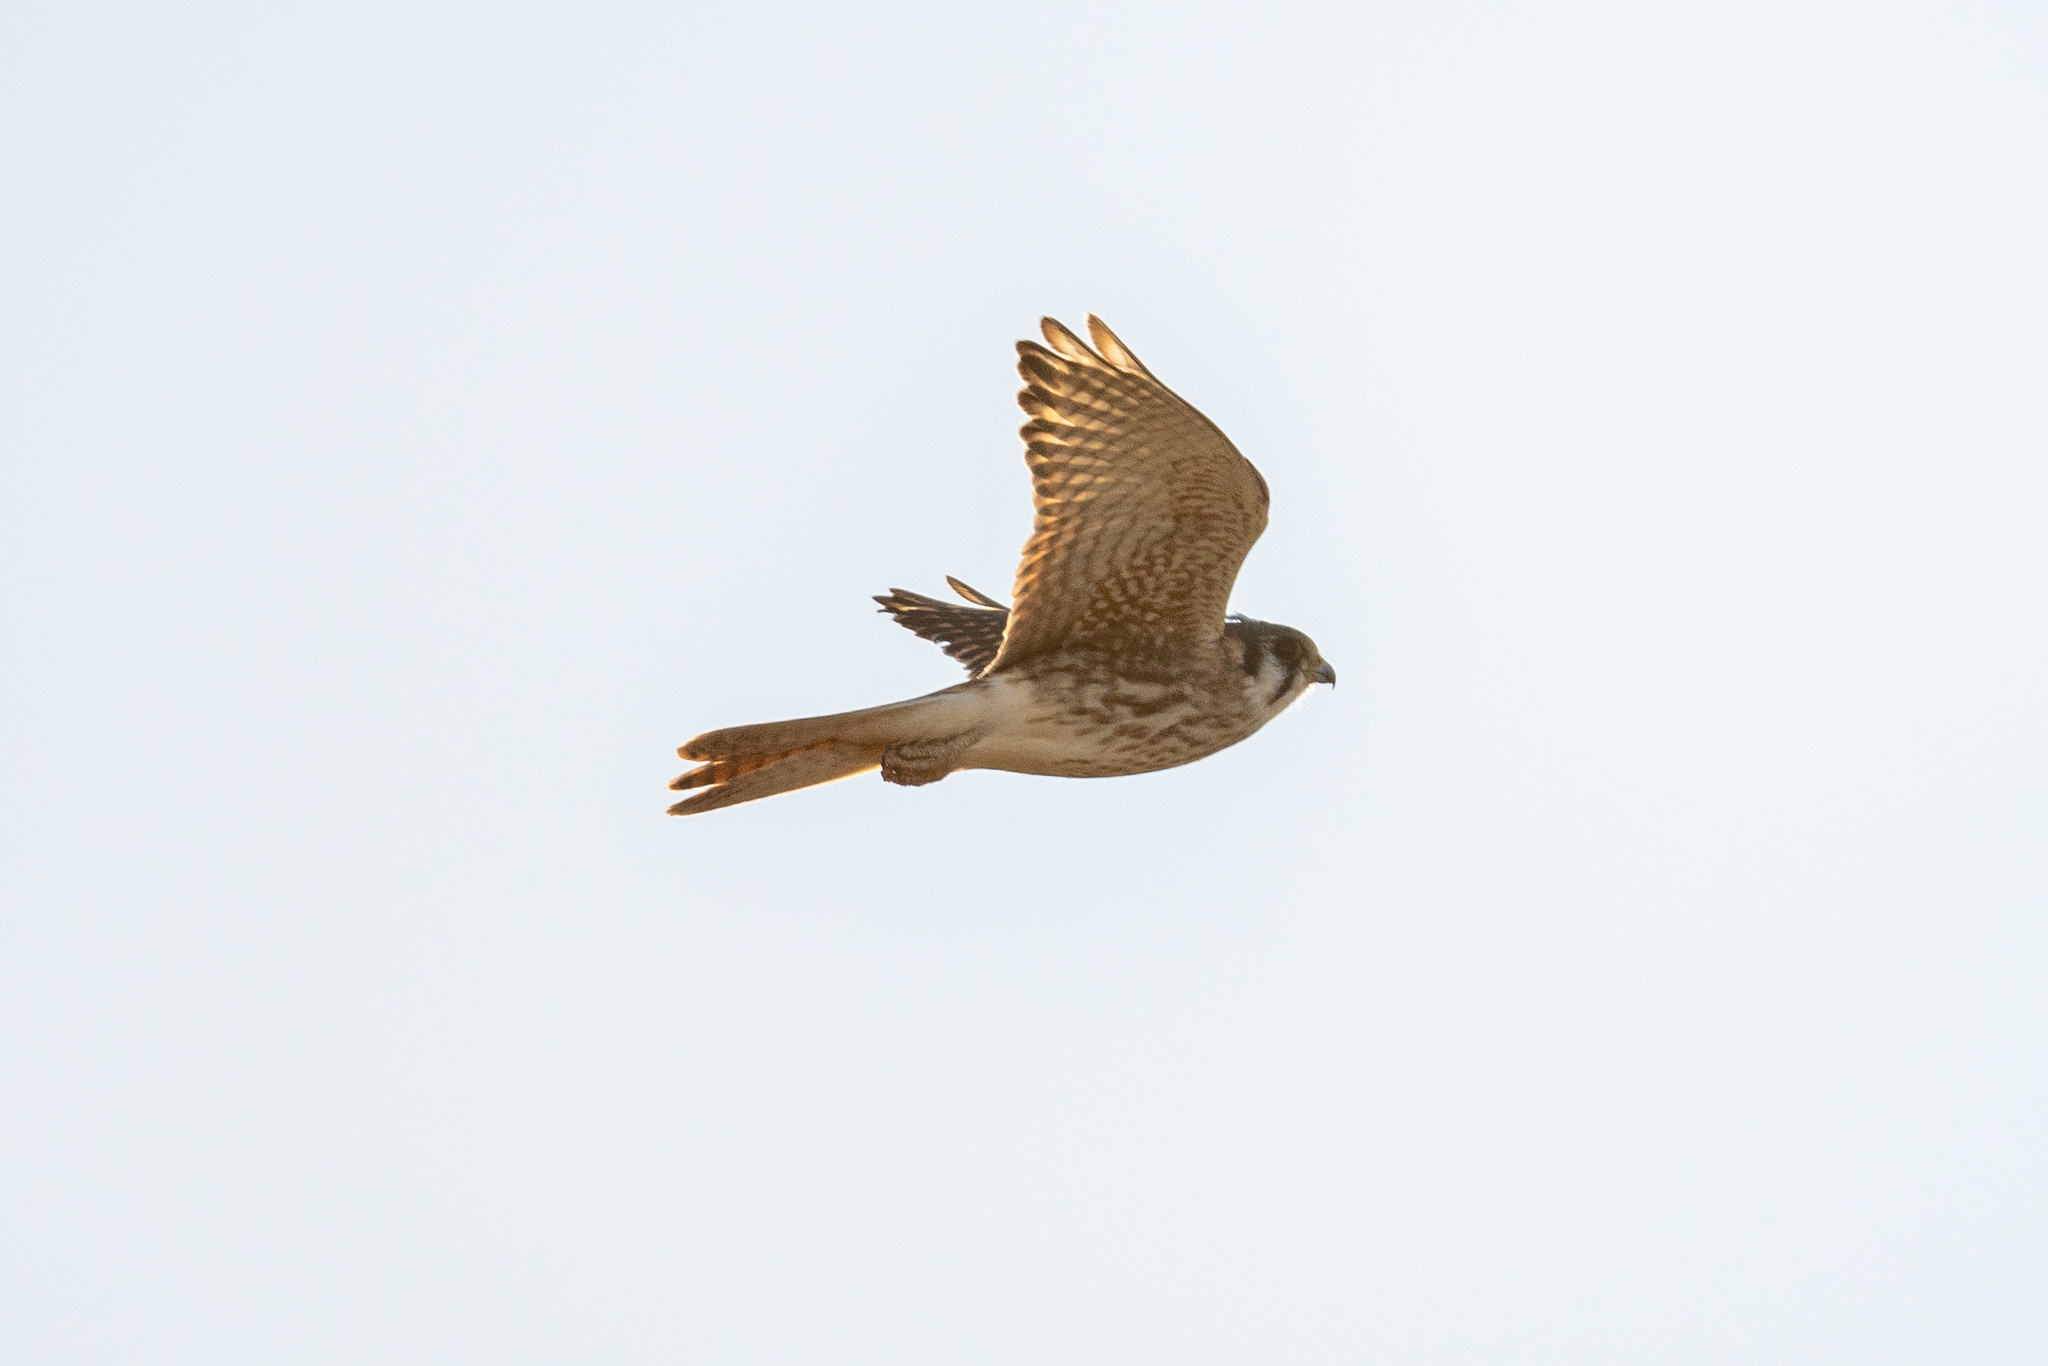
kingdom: Animalia
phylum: Chordata
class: Aves
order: Falconiformes
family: Falconidae
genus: Falco
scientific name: Falco sparverius
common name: American kestrel
